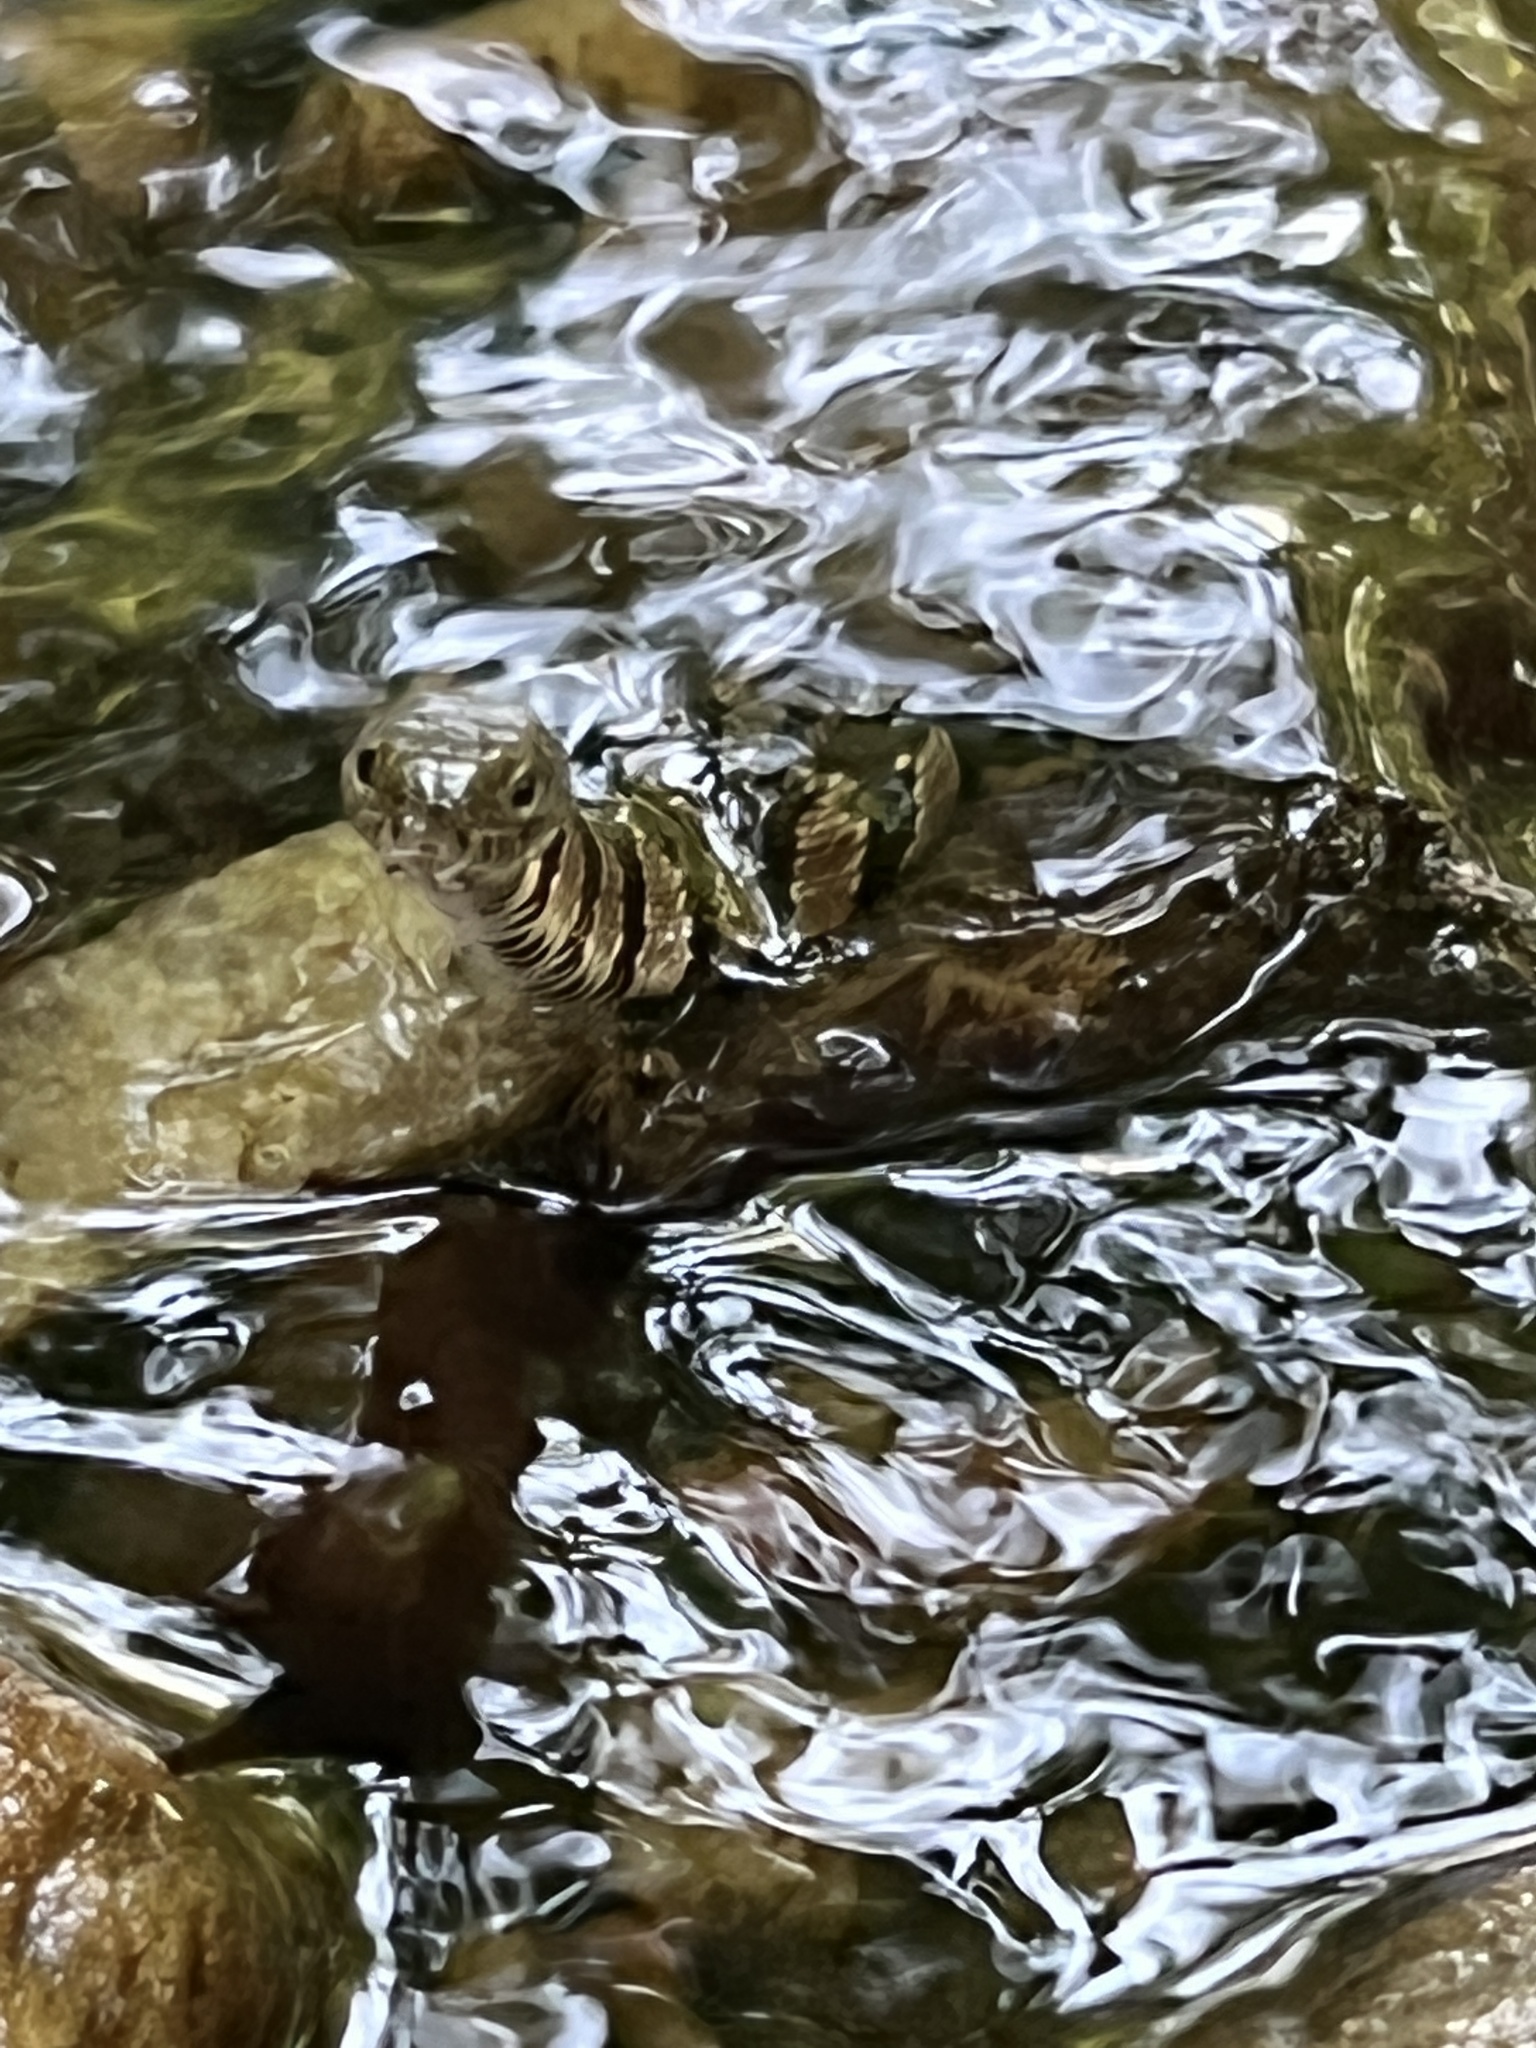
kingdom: Animalia
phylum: Chordata
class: Squamata
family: Colubridae
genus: Nerodia
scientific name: Nerodia sipedon
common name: Northern water snake
